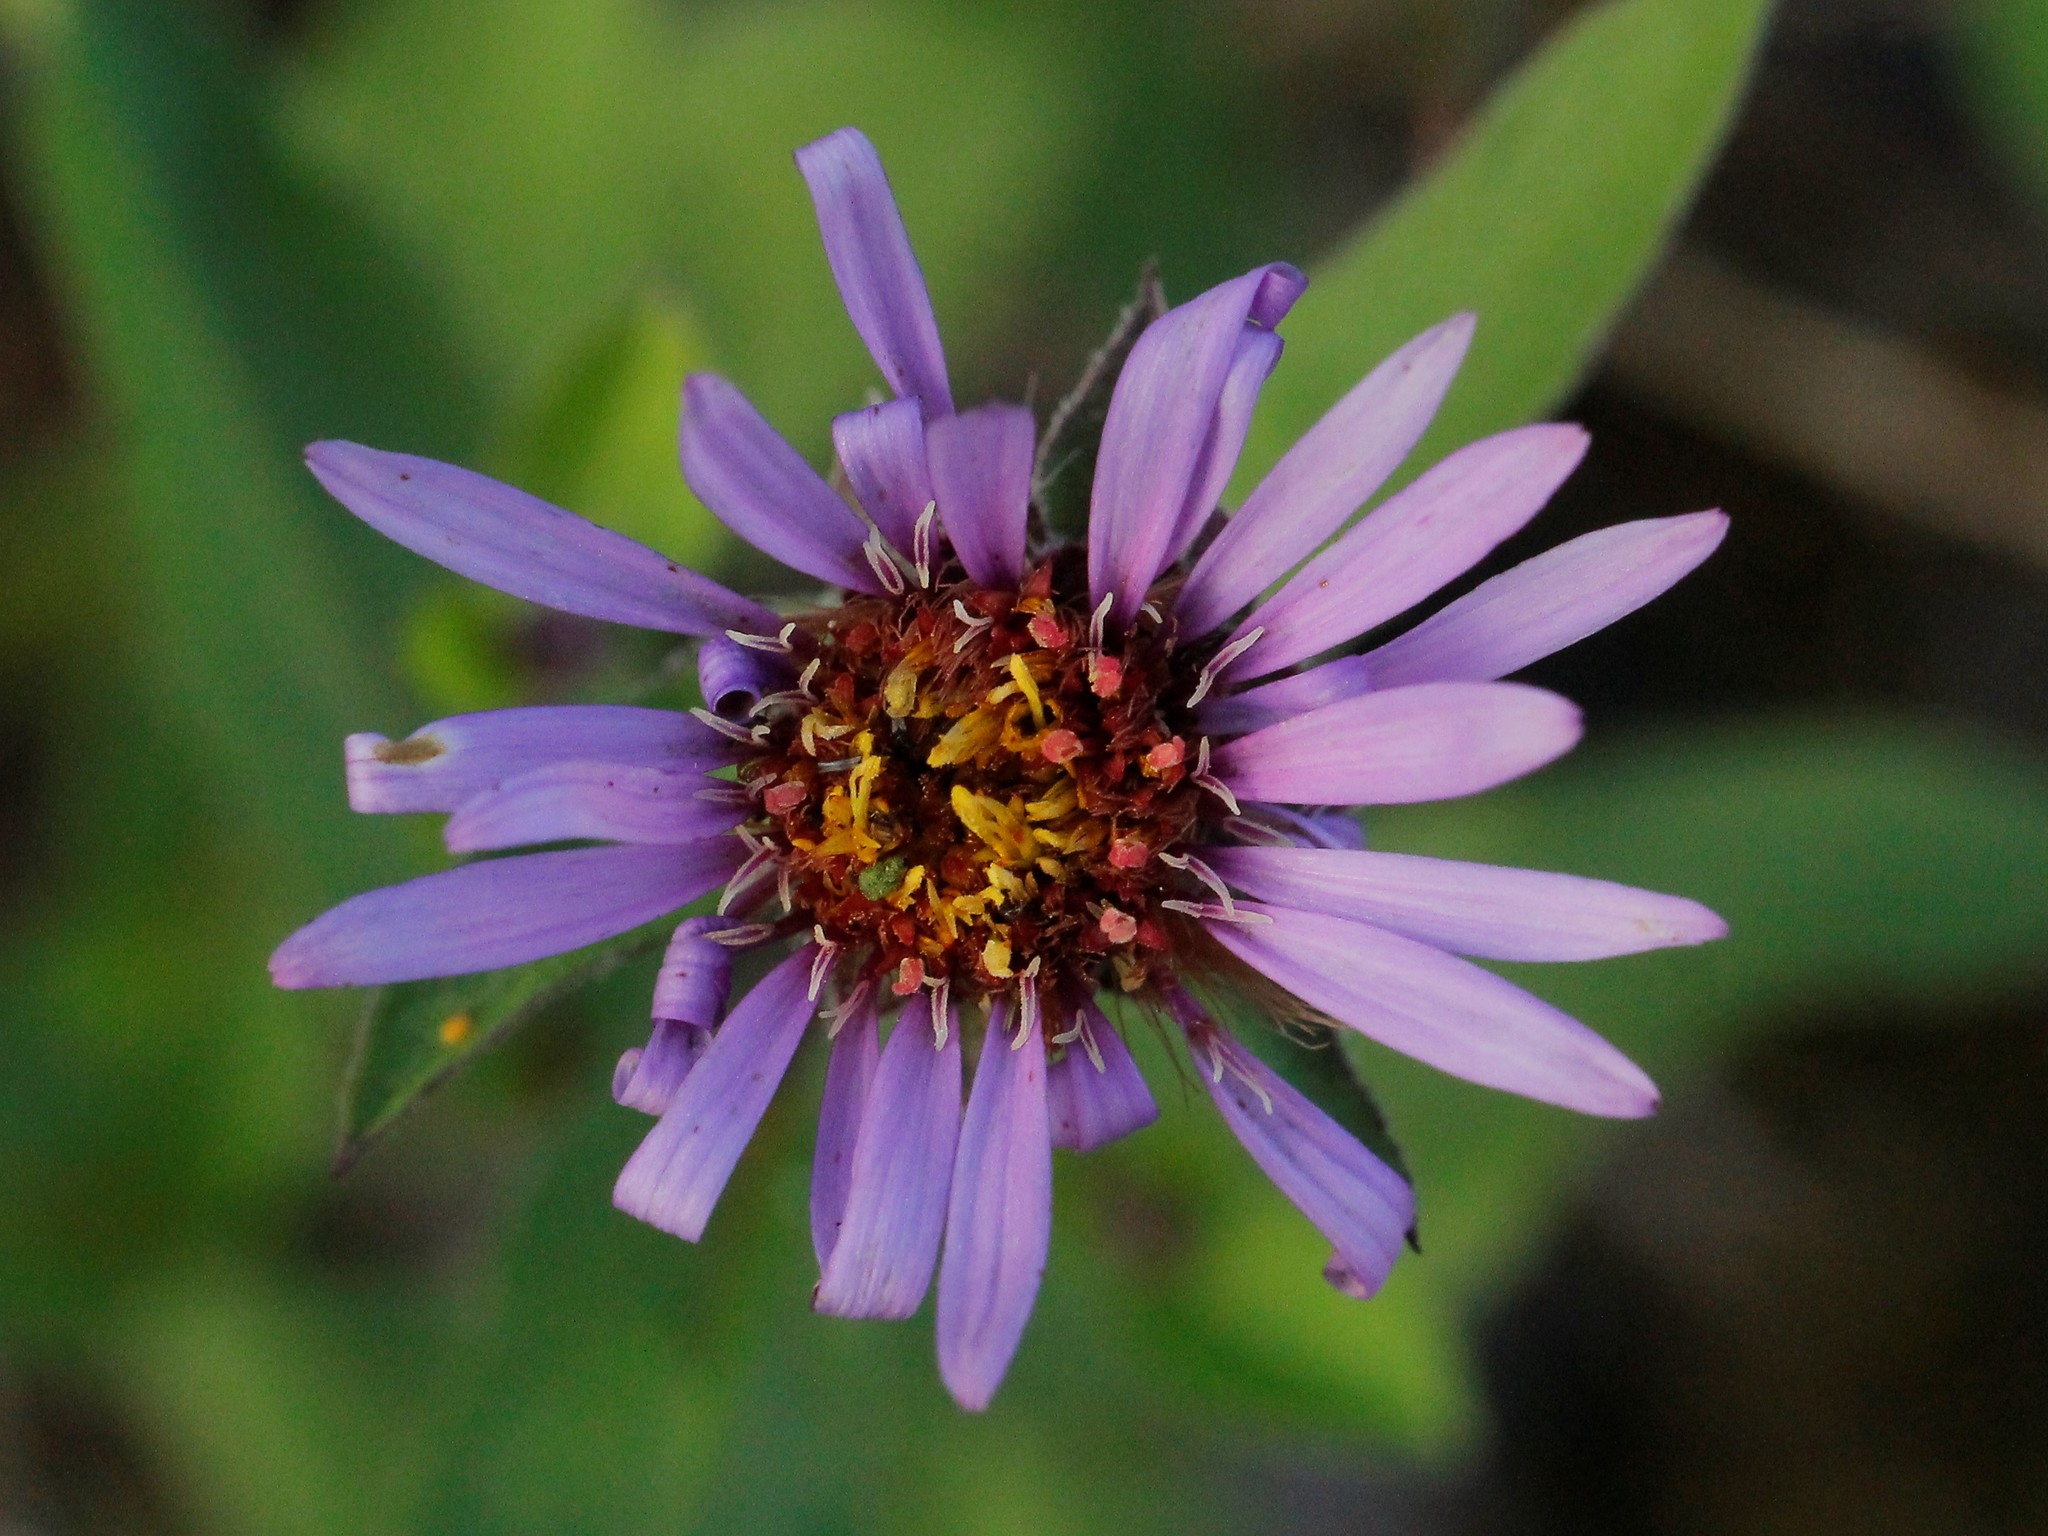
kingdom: Plantae
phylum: Tracheophyta
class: Magnoliopsida
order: Asterales
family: Asteraceae
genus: Eurybia
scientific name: Eurybia sibirica
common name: Arctic aster
